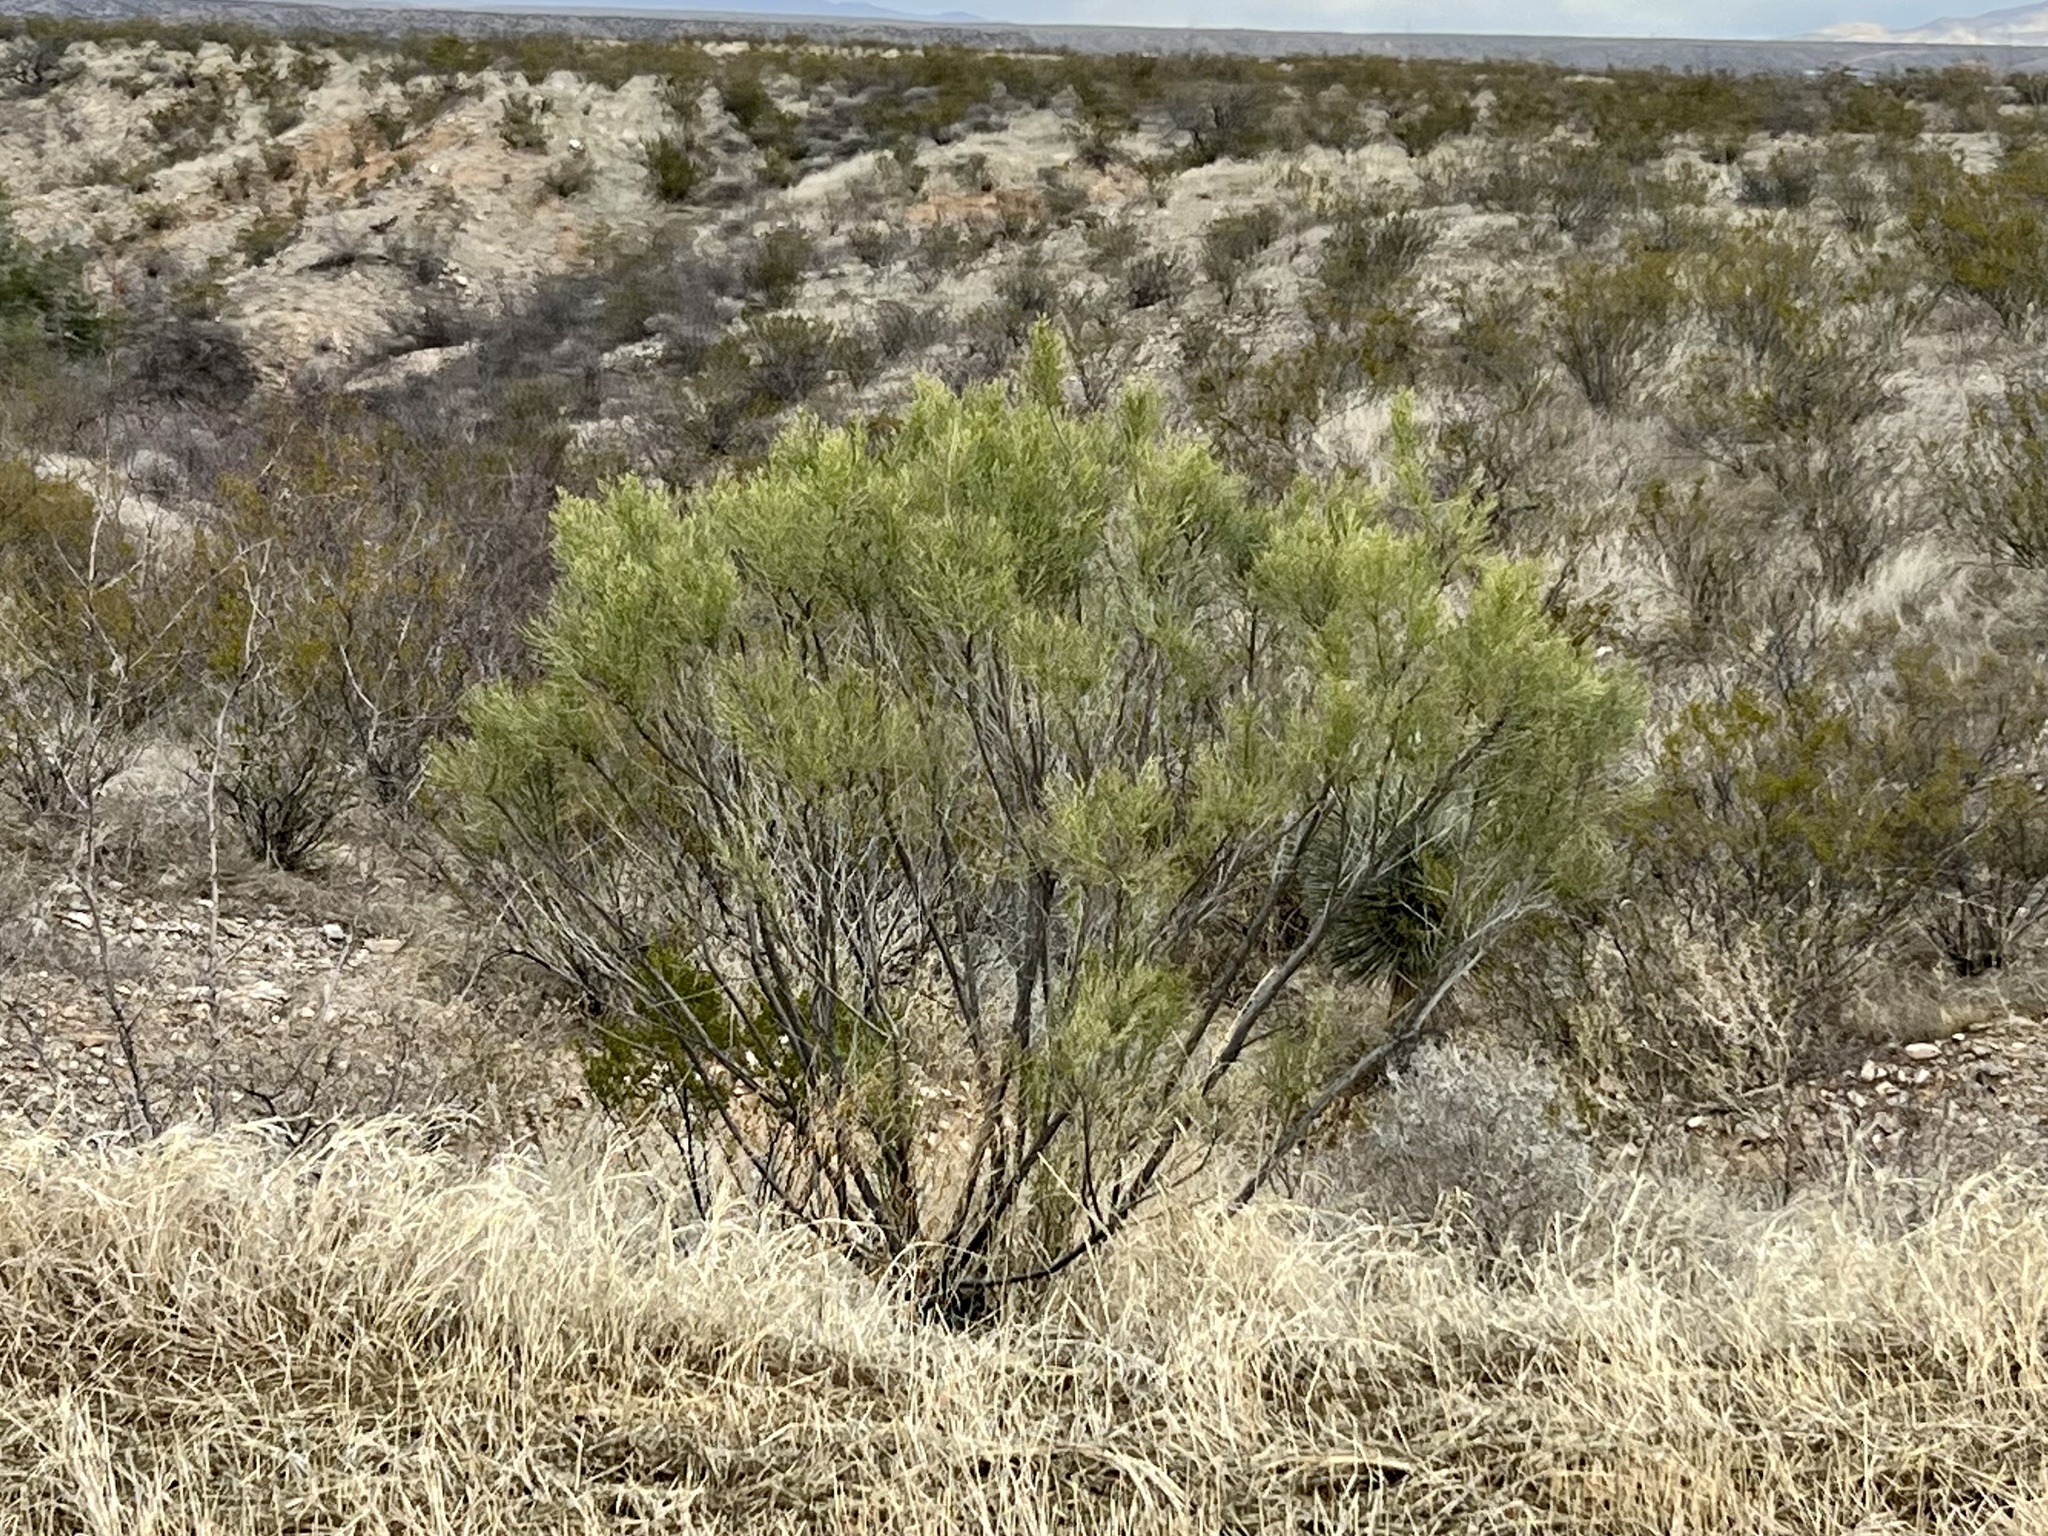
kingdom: Plantae
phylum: Tracheophyta
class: Magnoliopsida
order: Asterales
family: Asteraceae
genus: Baccharis
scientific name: Baccharis sarothroides
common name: Desert-broom
